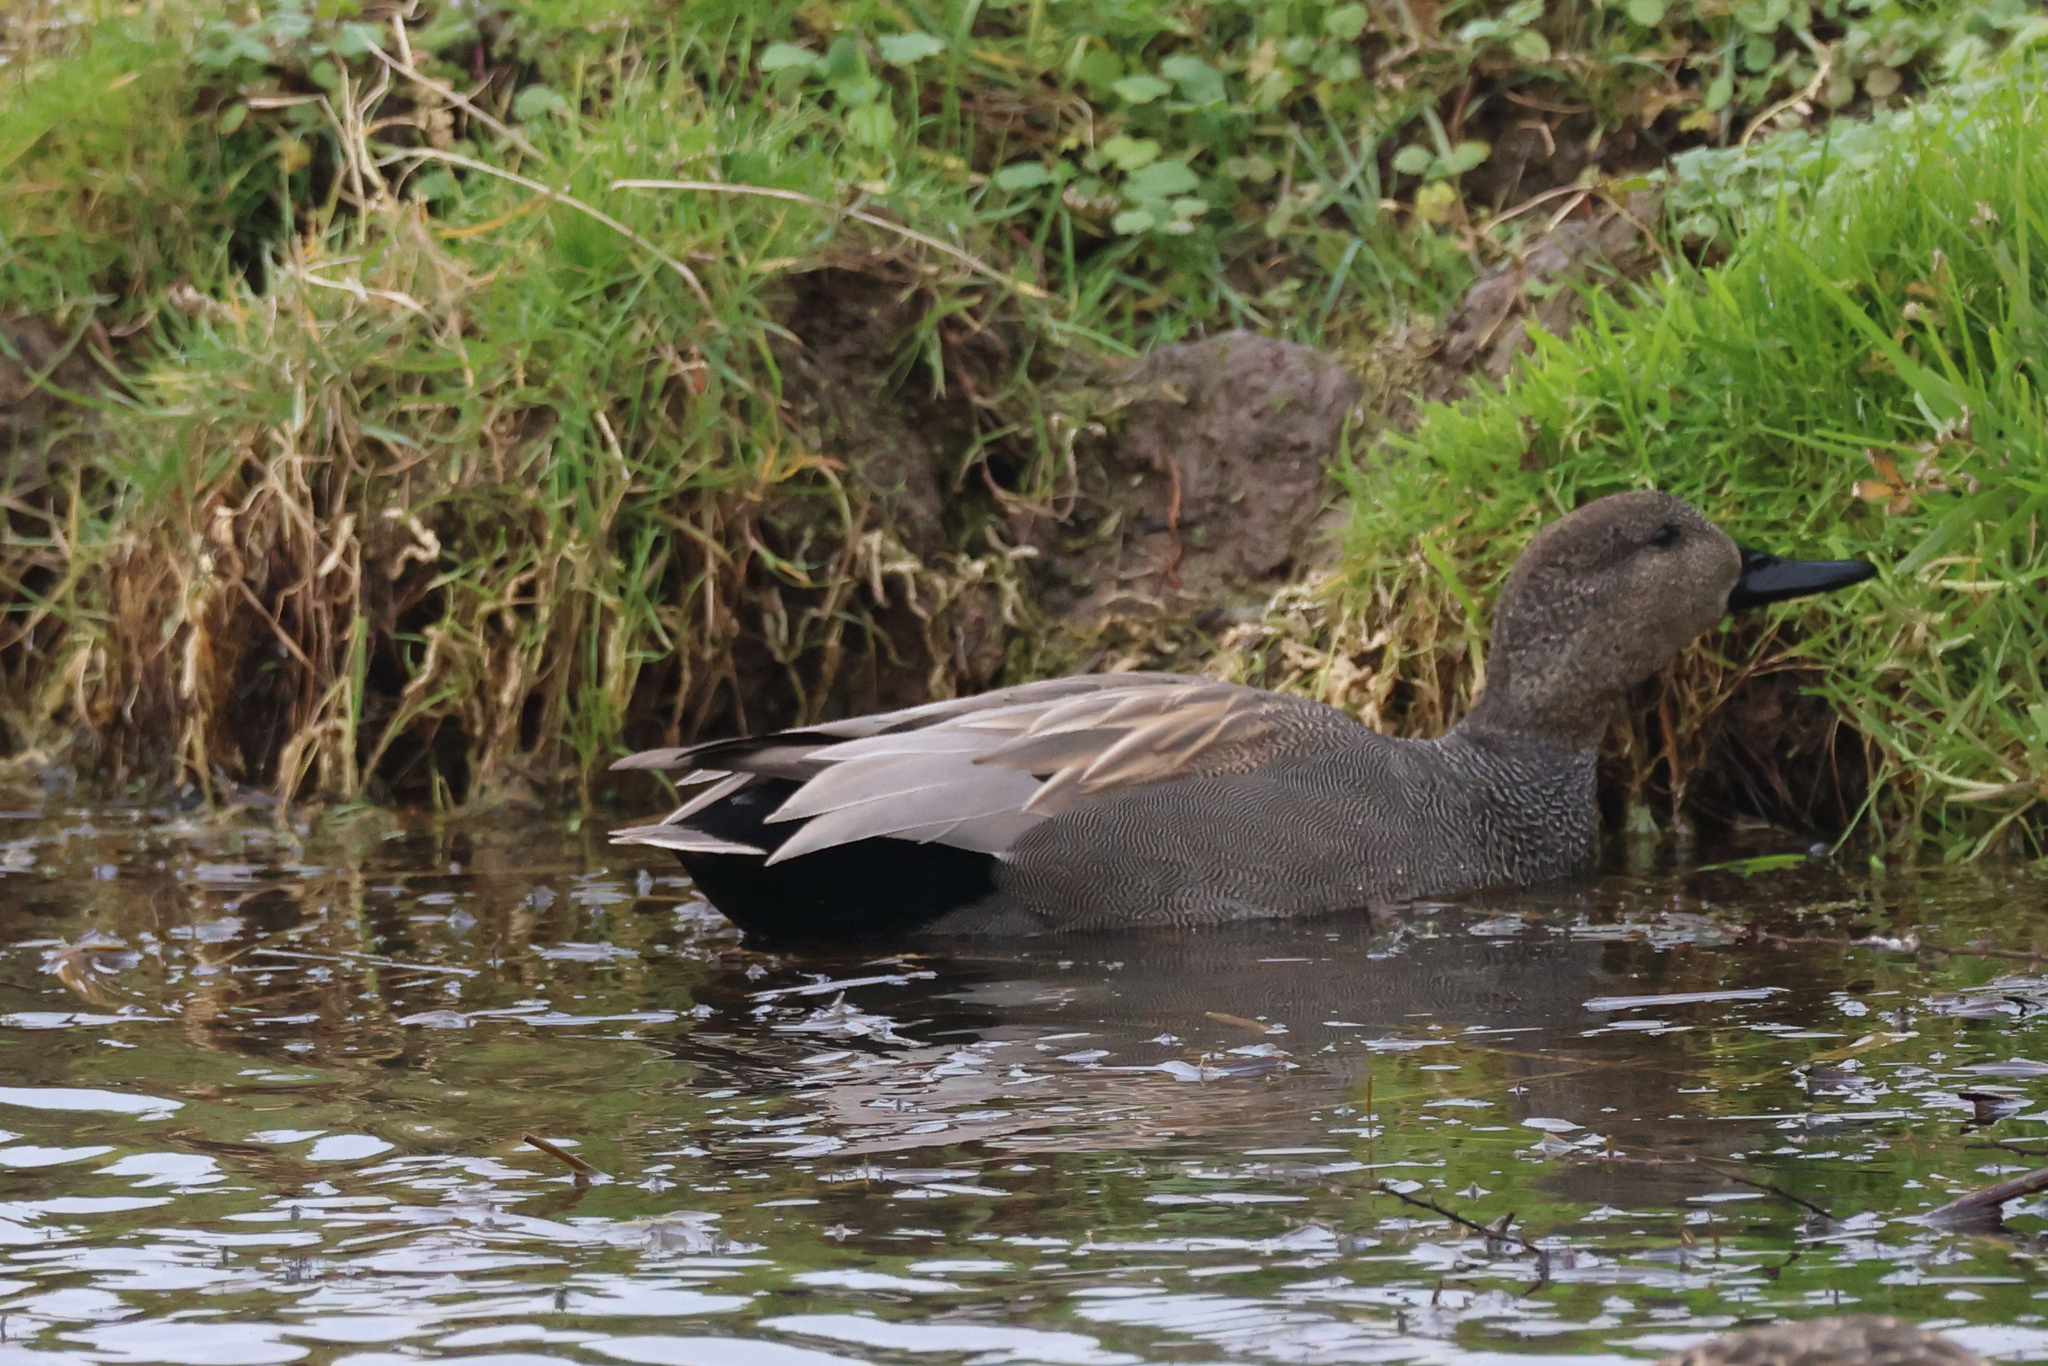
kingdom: Animalia
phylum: Chordata
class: Aves
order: Anseriformes
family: Anatidae
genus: Mareca
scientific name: Mareca strepera
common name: Gadwall
